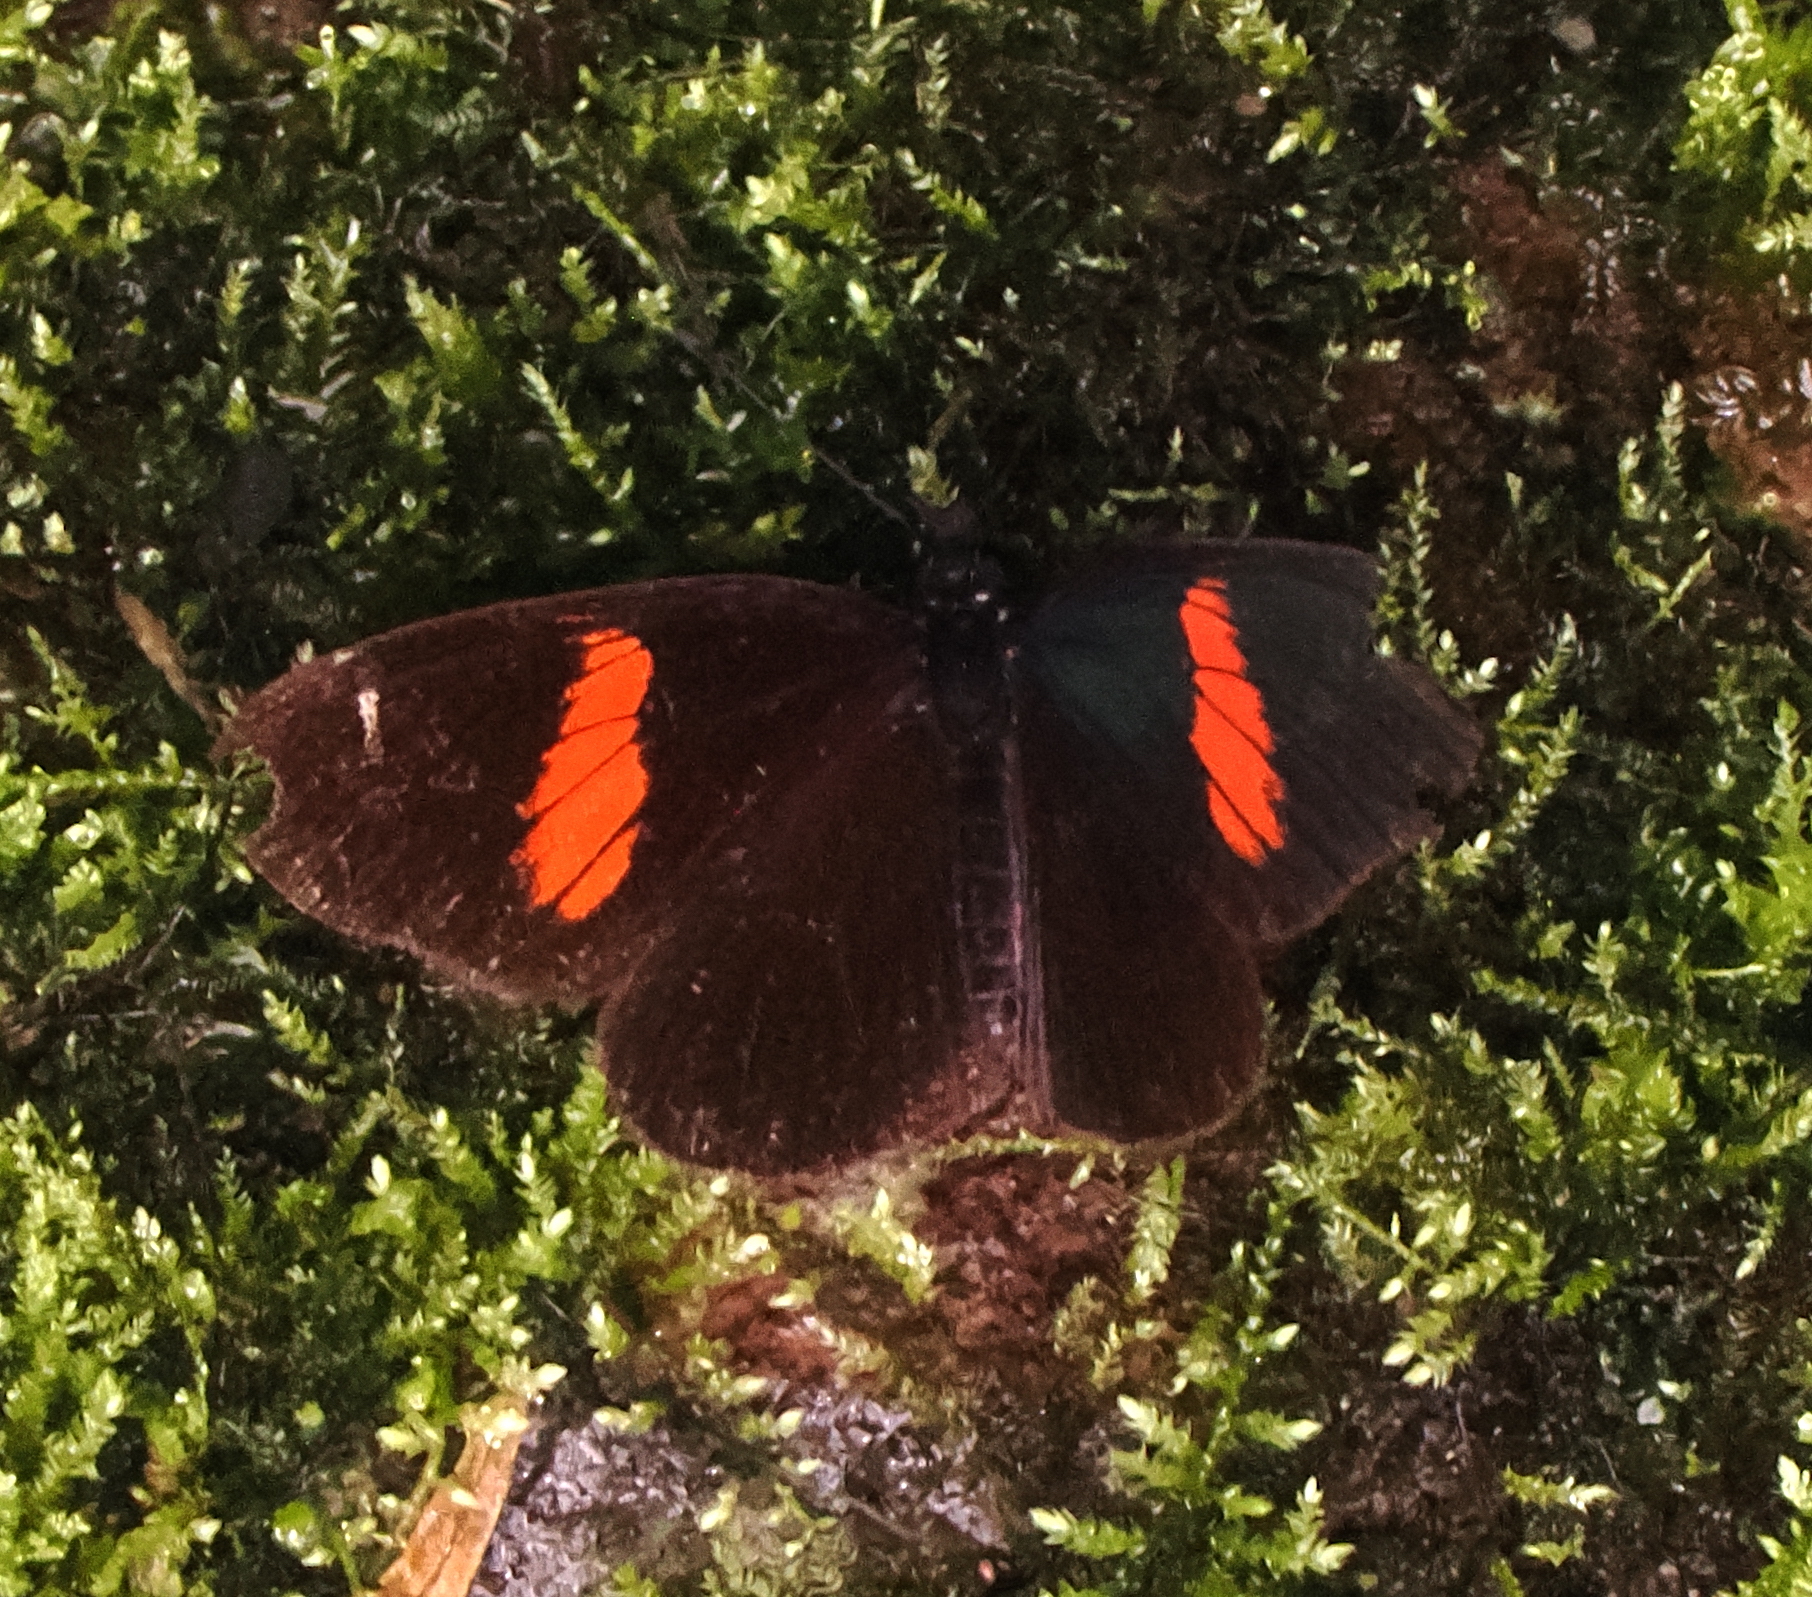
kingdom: Animalia
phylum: Arthropoda
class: Insecta
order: Lepidoptera
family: Nymphalidae
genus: Castilia
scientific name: Castilia castilla
